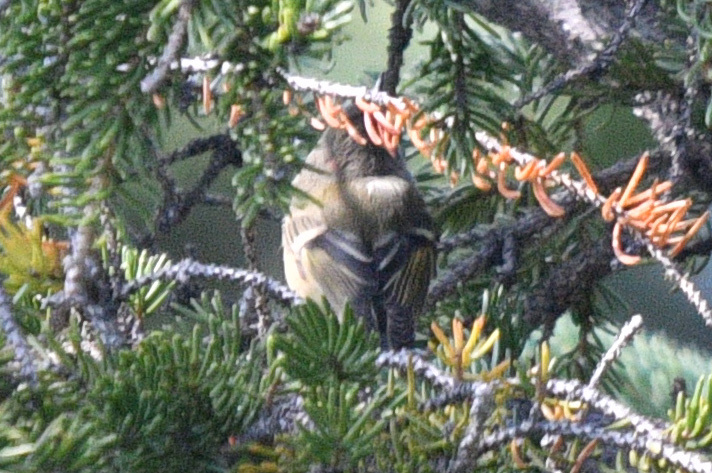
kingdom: Animalia
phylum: Chordata
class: Aves
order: Passeriformes
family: Regulidae
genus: Regulus
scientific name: Regulus calendula
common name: Ruby-crowned kinglet
